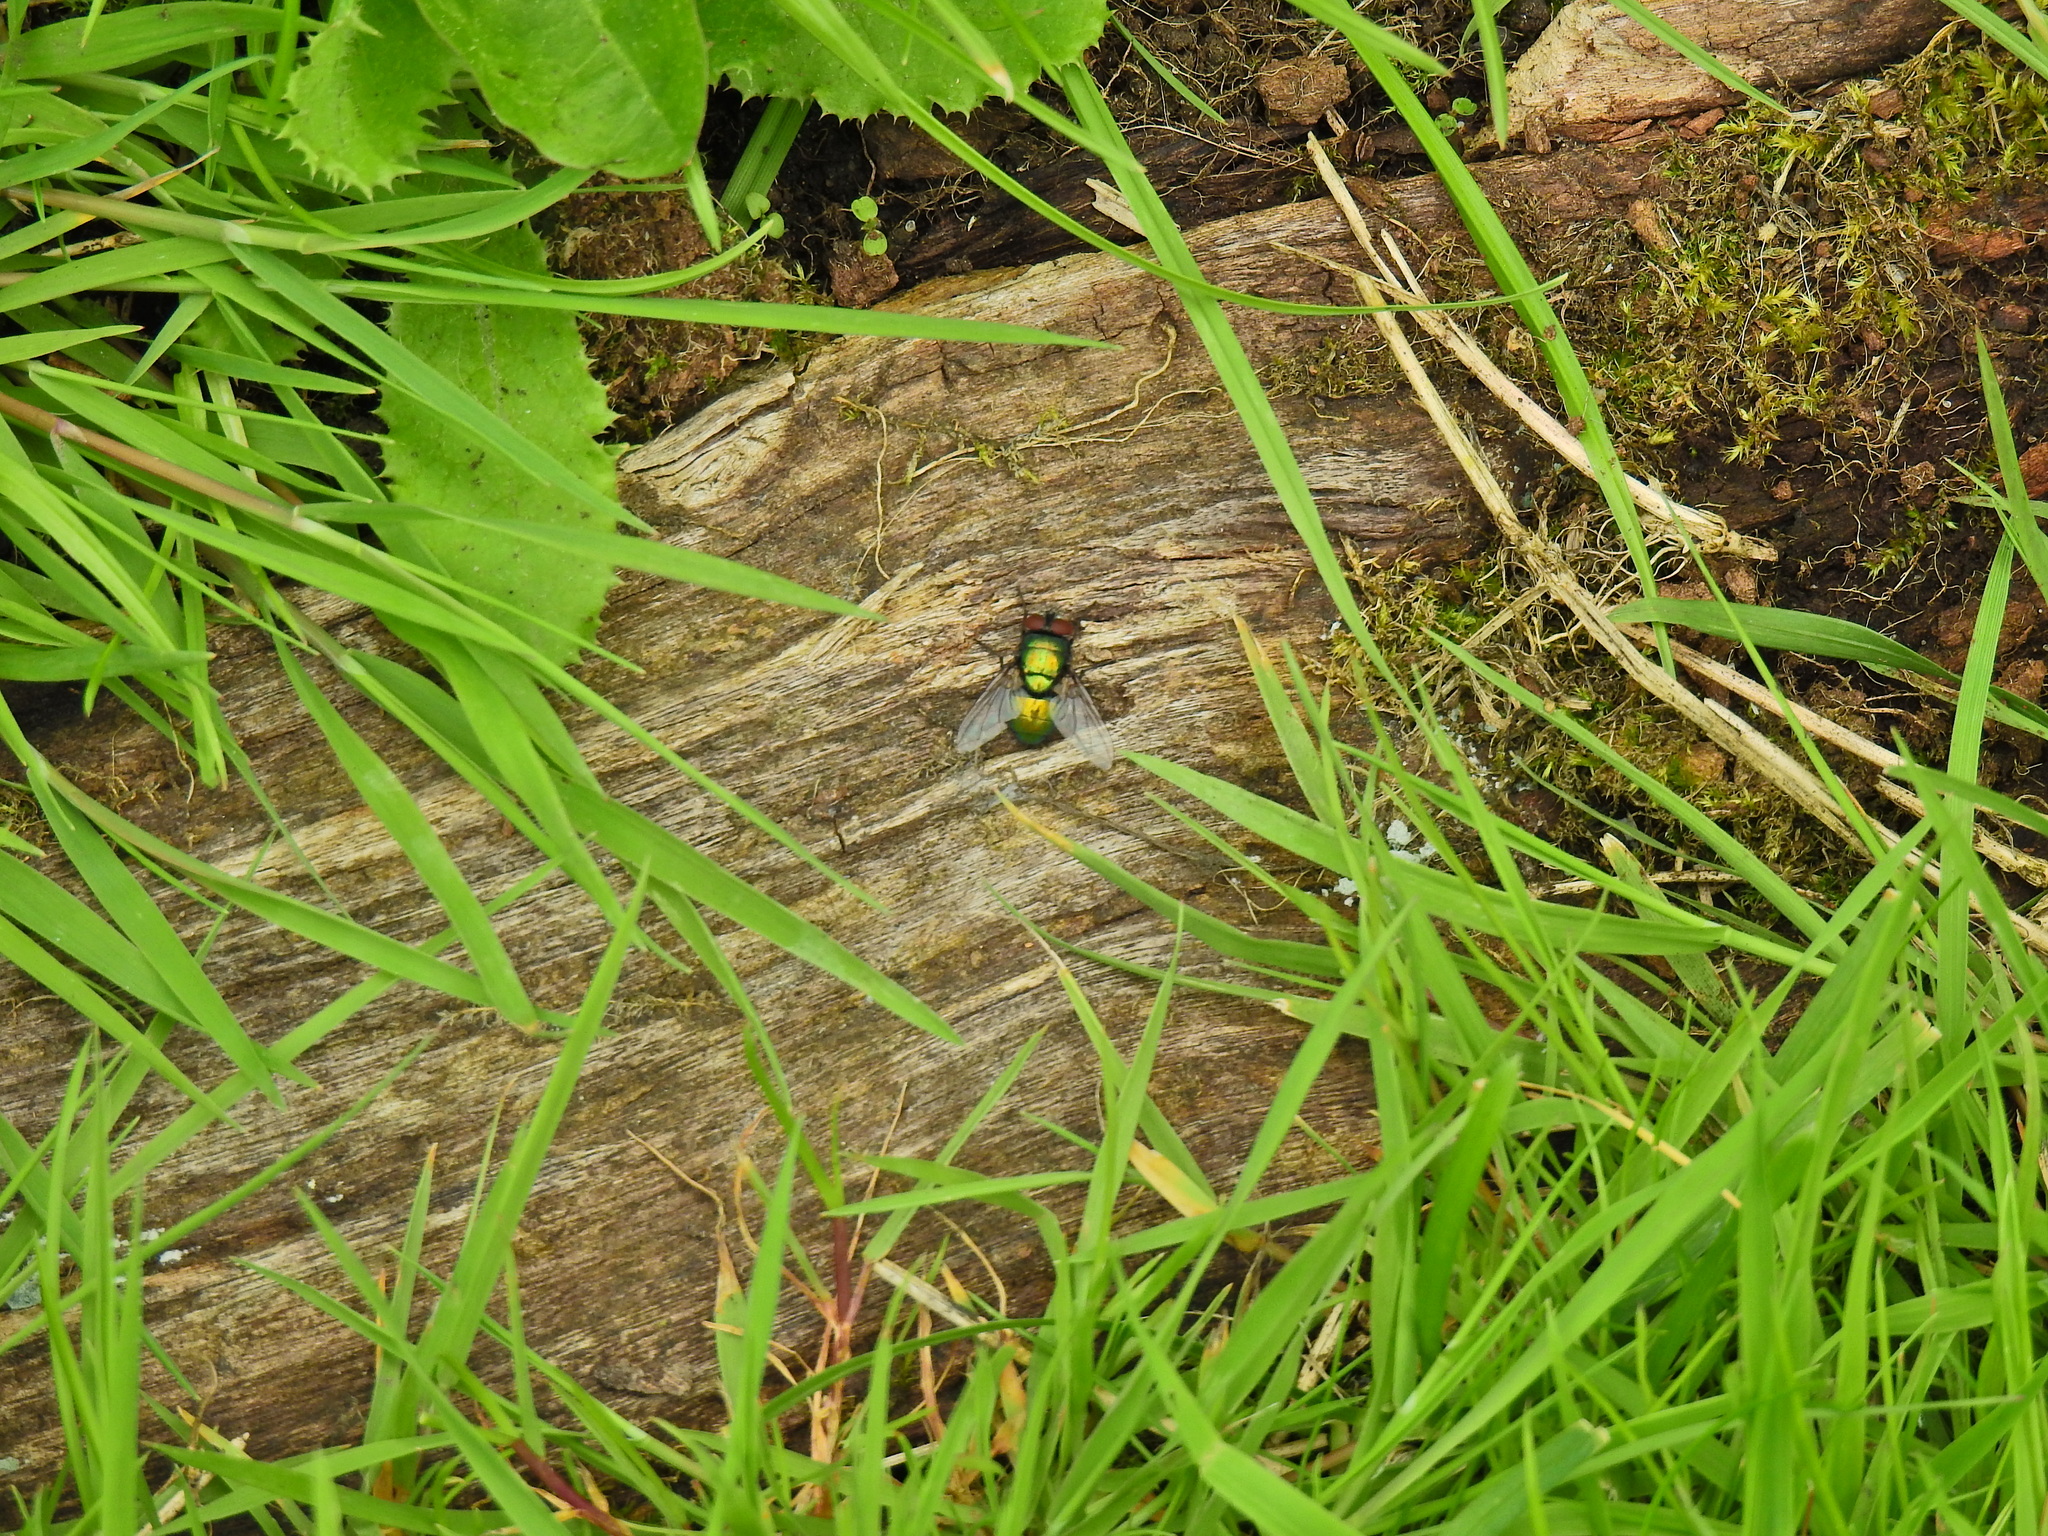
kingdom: Animalia
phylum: Arthropoda
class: Insecta
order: Diptera
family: Calliphoridae
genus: Lucilia
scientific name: Lucilia
